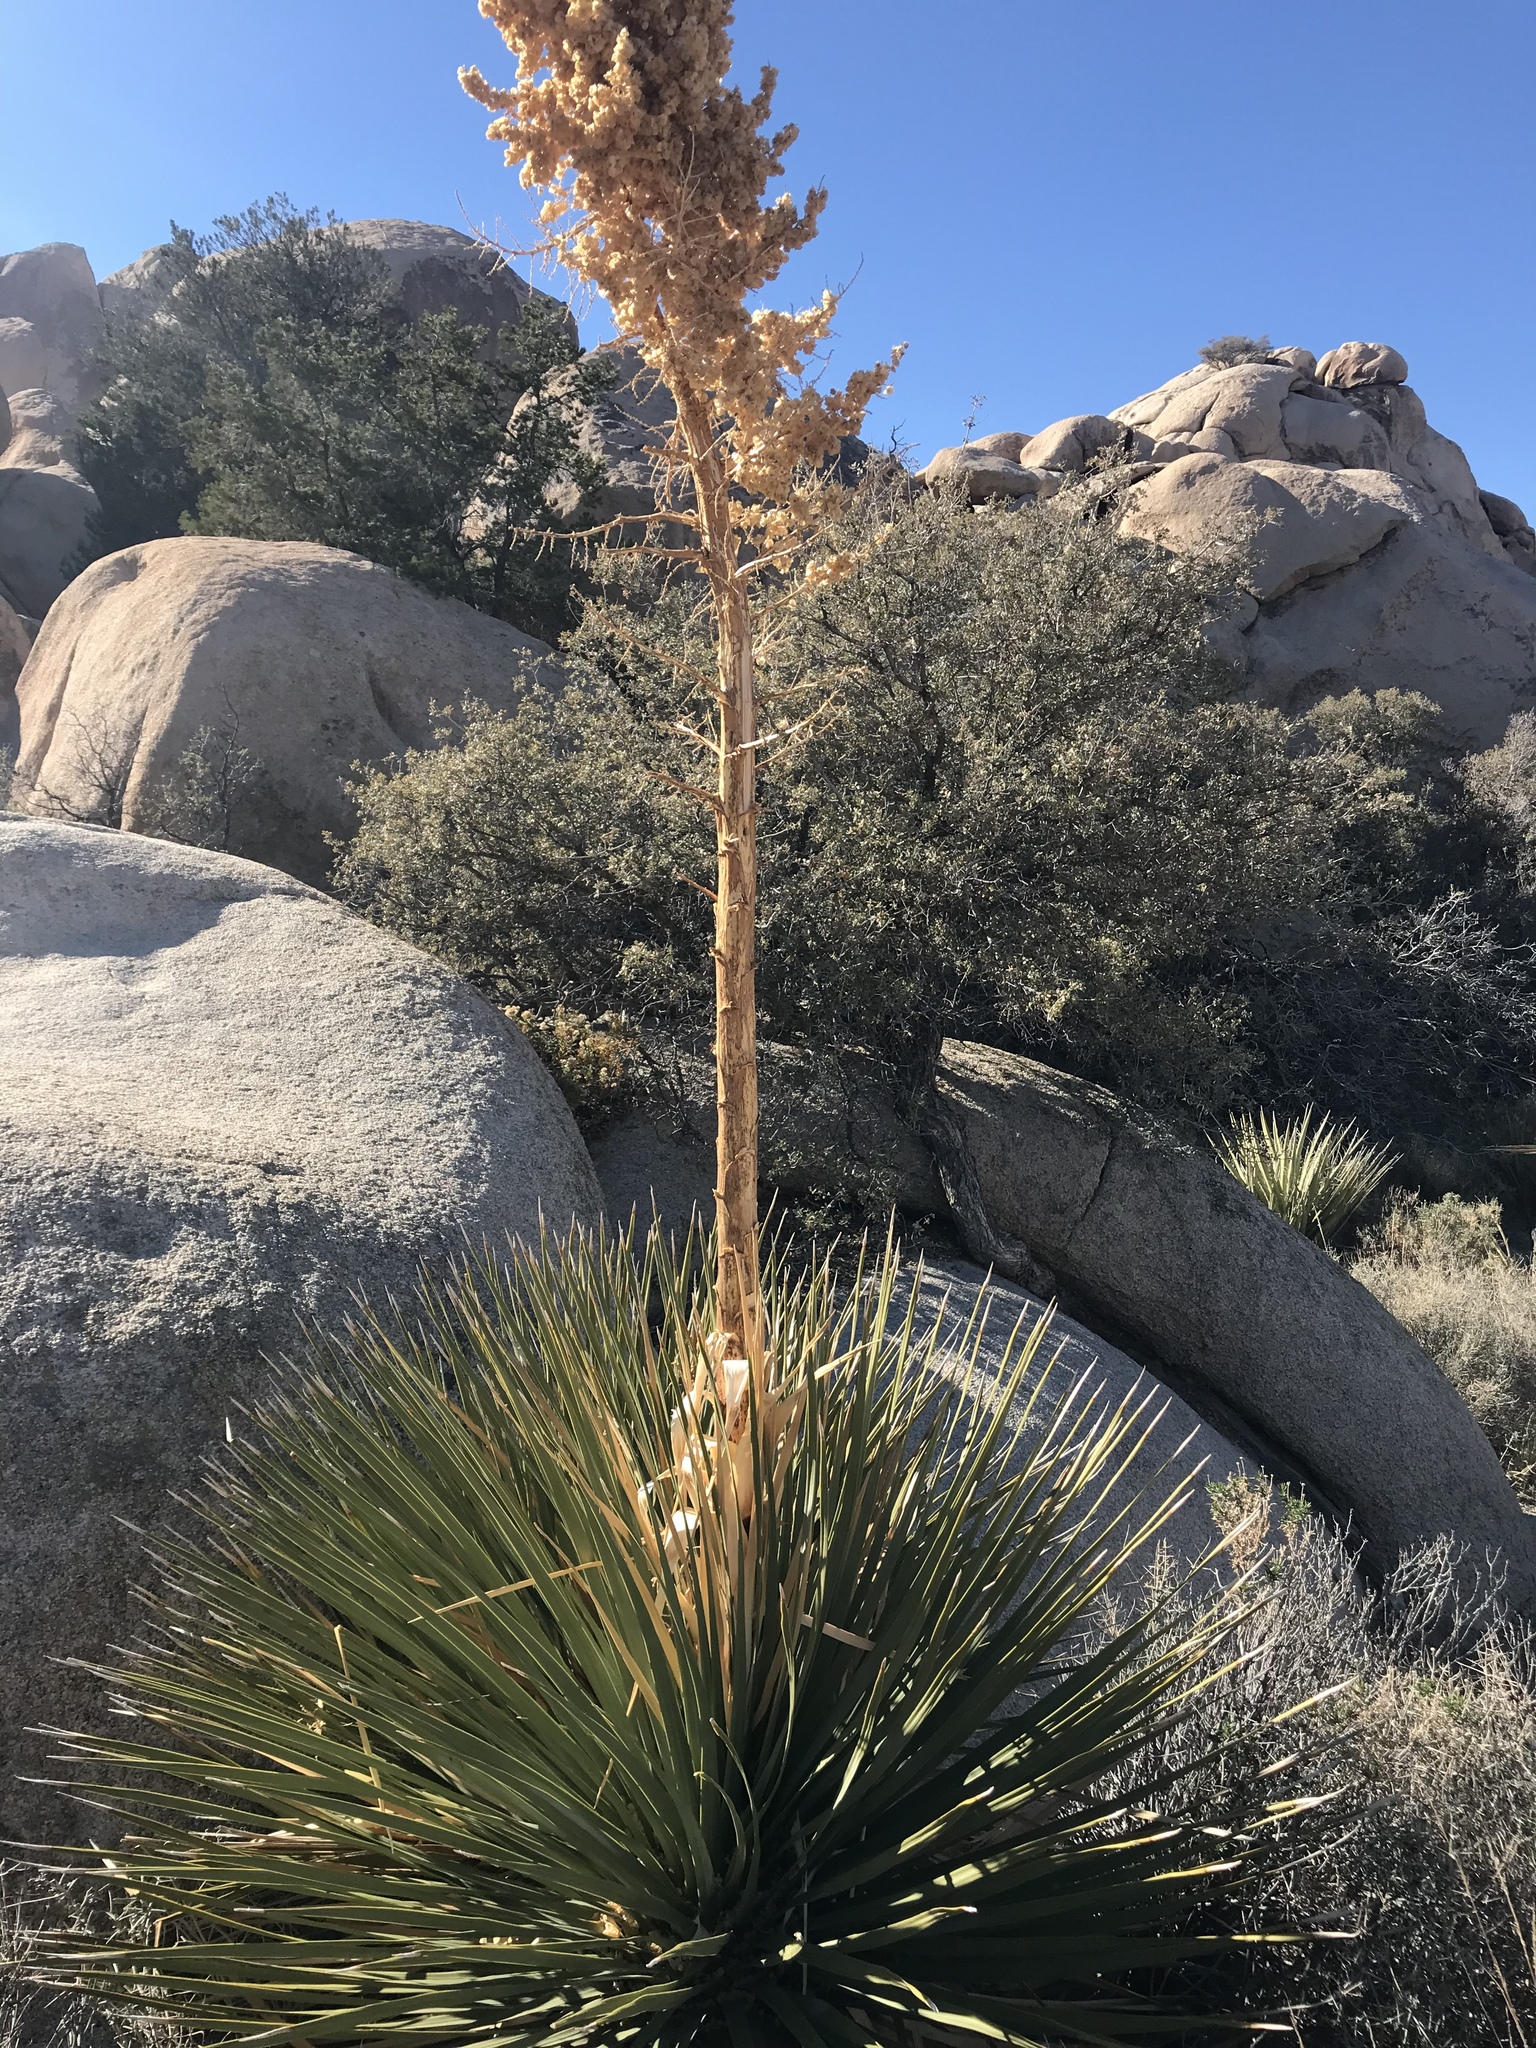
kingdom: Plantae
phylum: Tracheophyta
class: Liliopsida
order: Asparagales
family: Asparagaceae
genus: Nolina
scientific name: Nolina parryi
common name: Parry nolina
